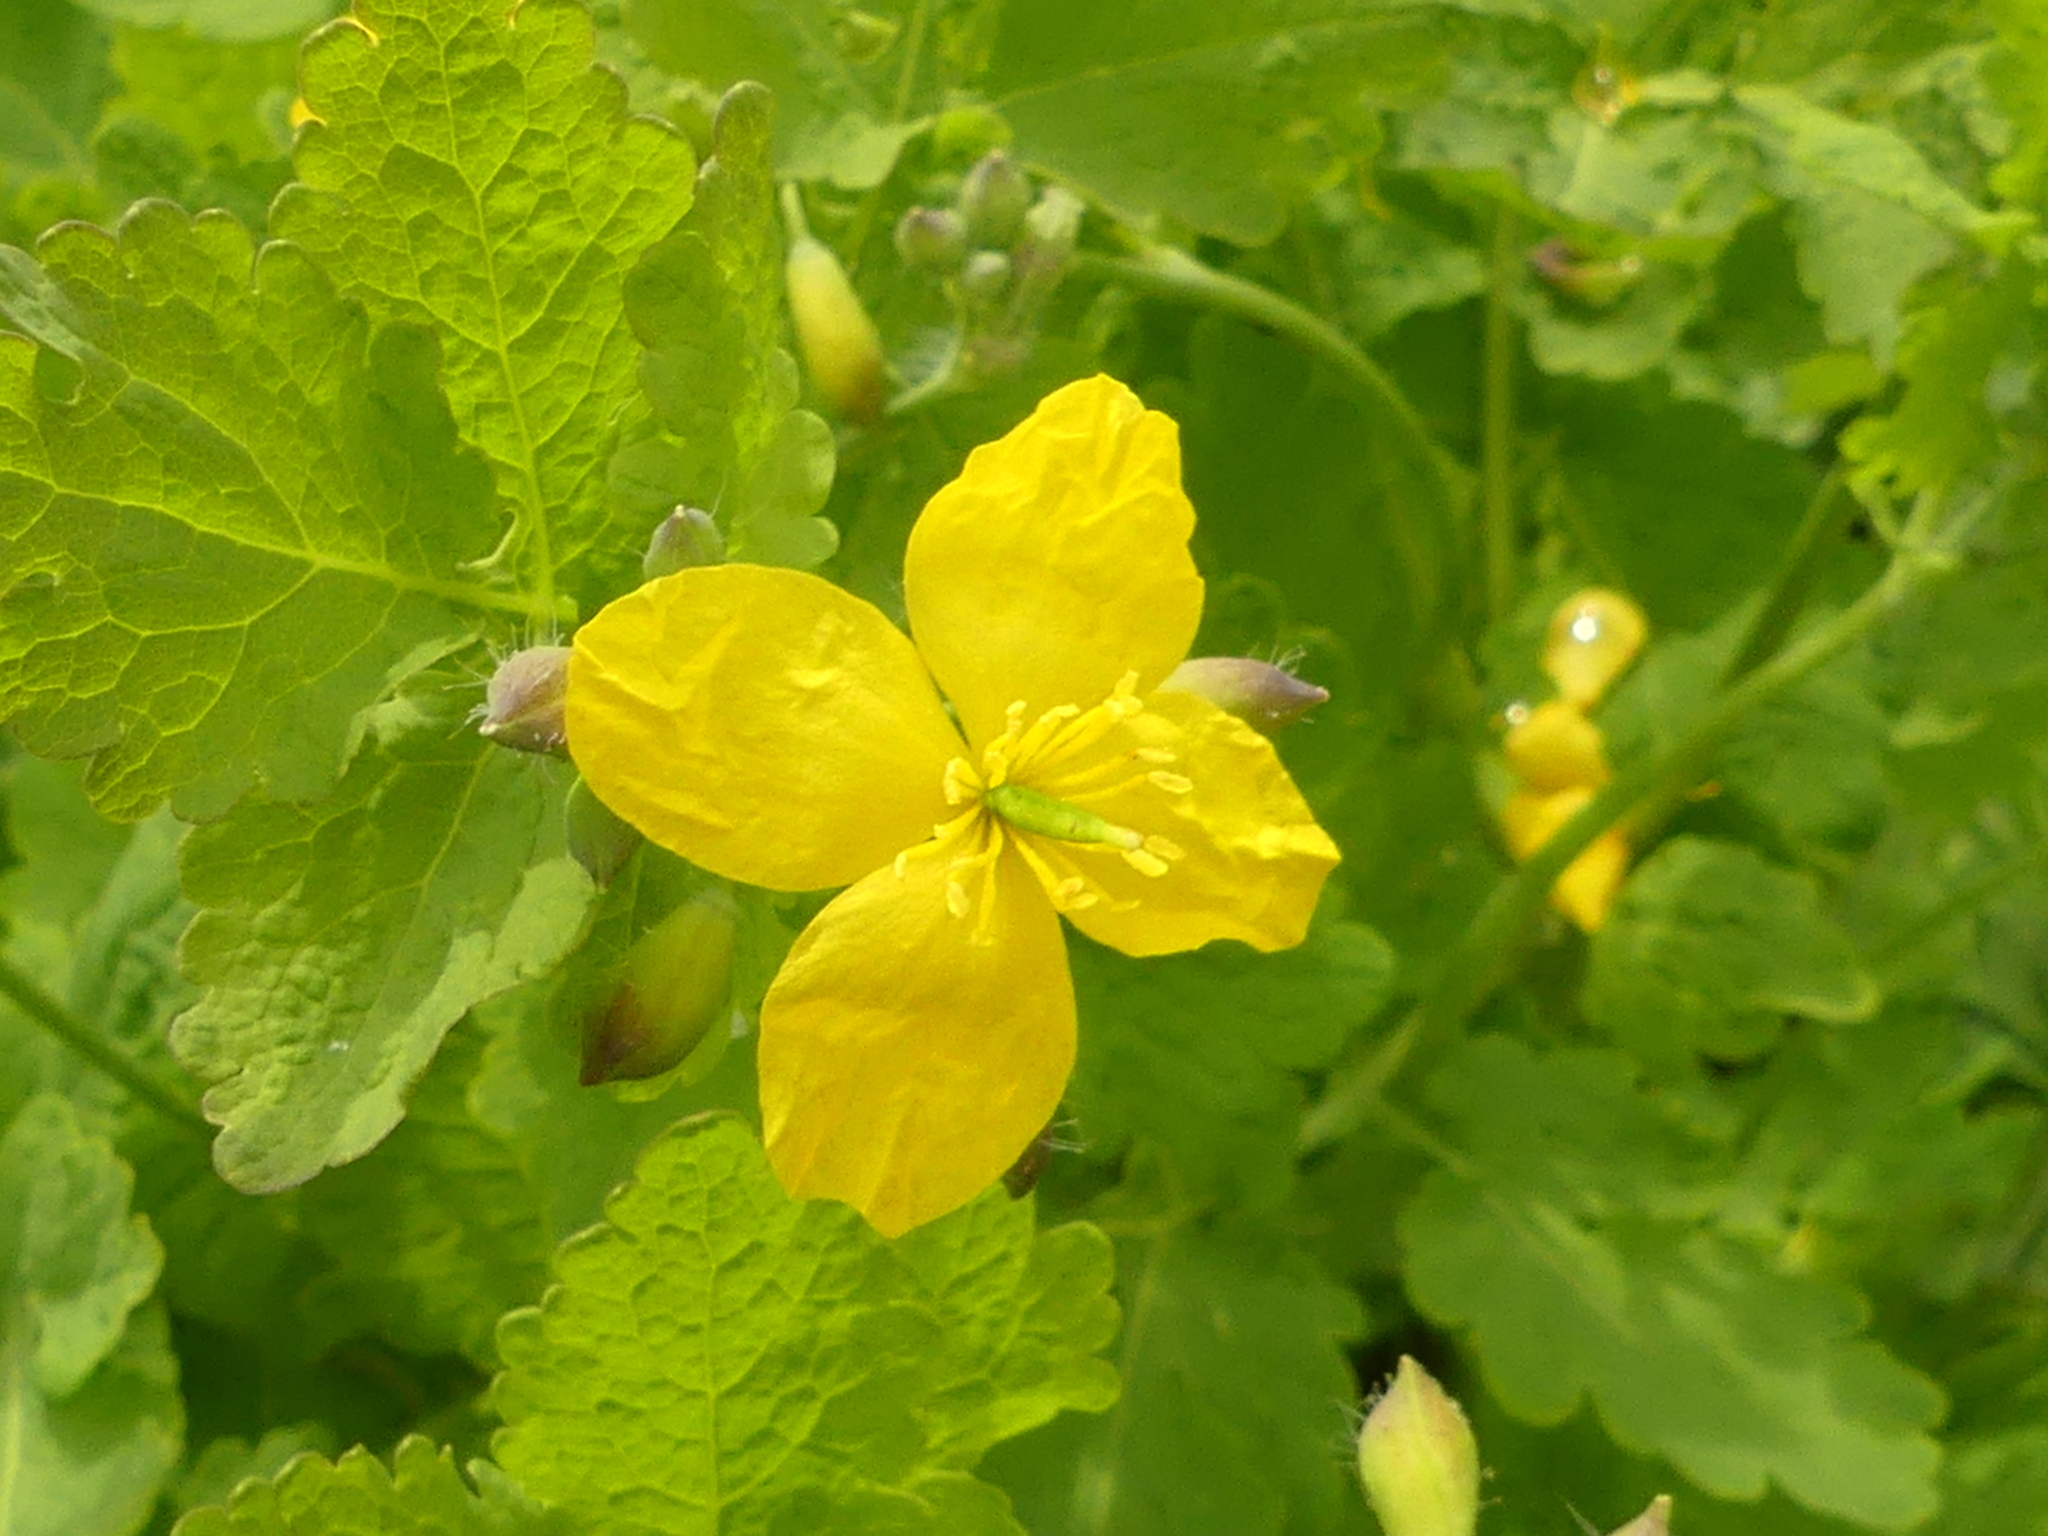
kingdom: Plantae
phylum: Tracheophyta
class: Magnoliopsida
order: Ranunculales
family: Papaveraceae
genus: Chelidonium
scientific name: Chelidonium majus
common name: Greater celandine
